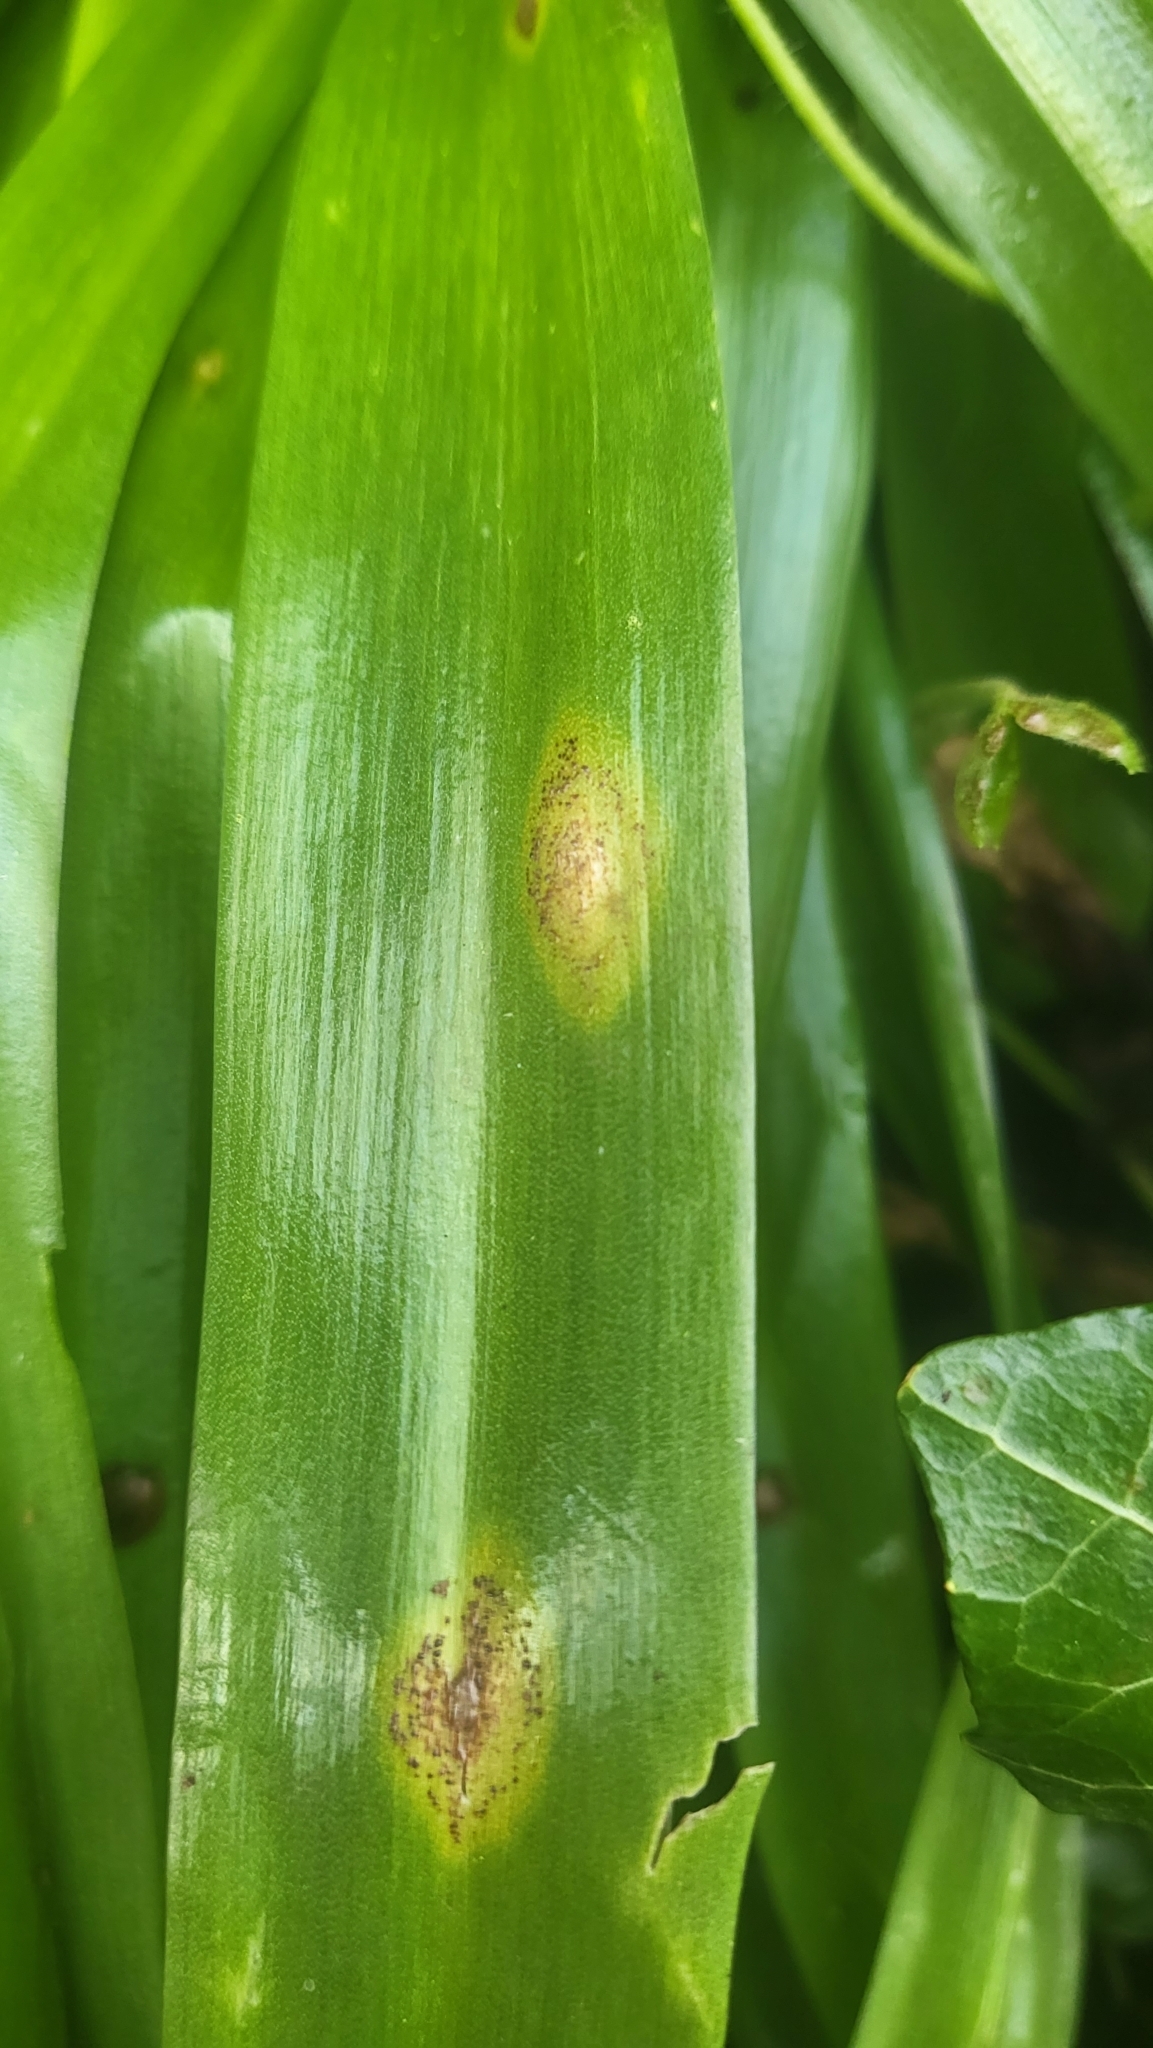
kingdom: Fungi
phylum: Basidiomycota
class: Pucciniomycetes
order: Pucciniales
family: Pucciniaceae
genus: Uromyces
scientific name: Uromyces hyacinthi
